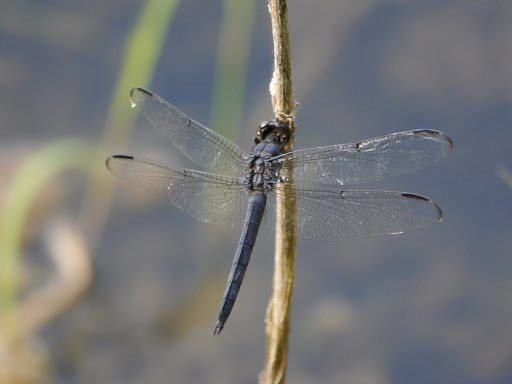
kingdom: Animalia
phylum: Arthropoda
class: Insecta
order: Odonata
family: Libellulidae
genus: Libellula
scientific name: Libellula incesta
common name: Slaty skimmer
